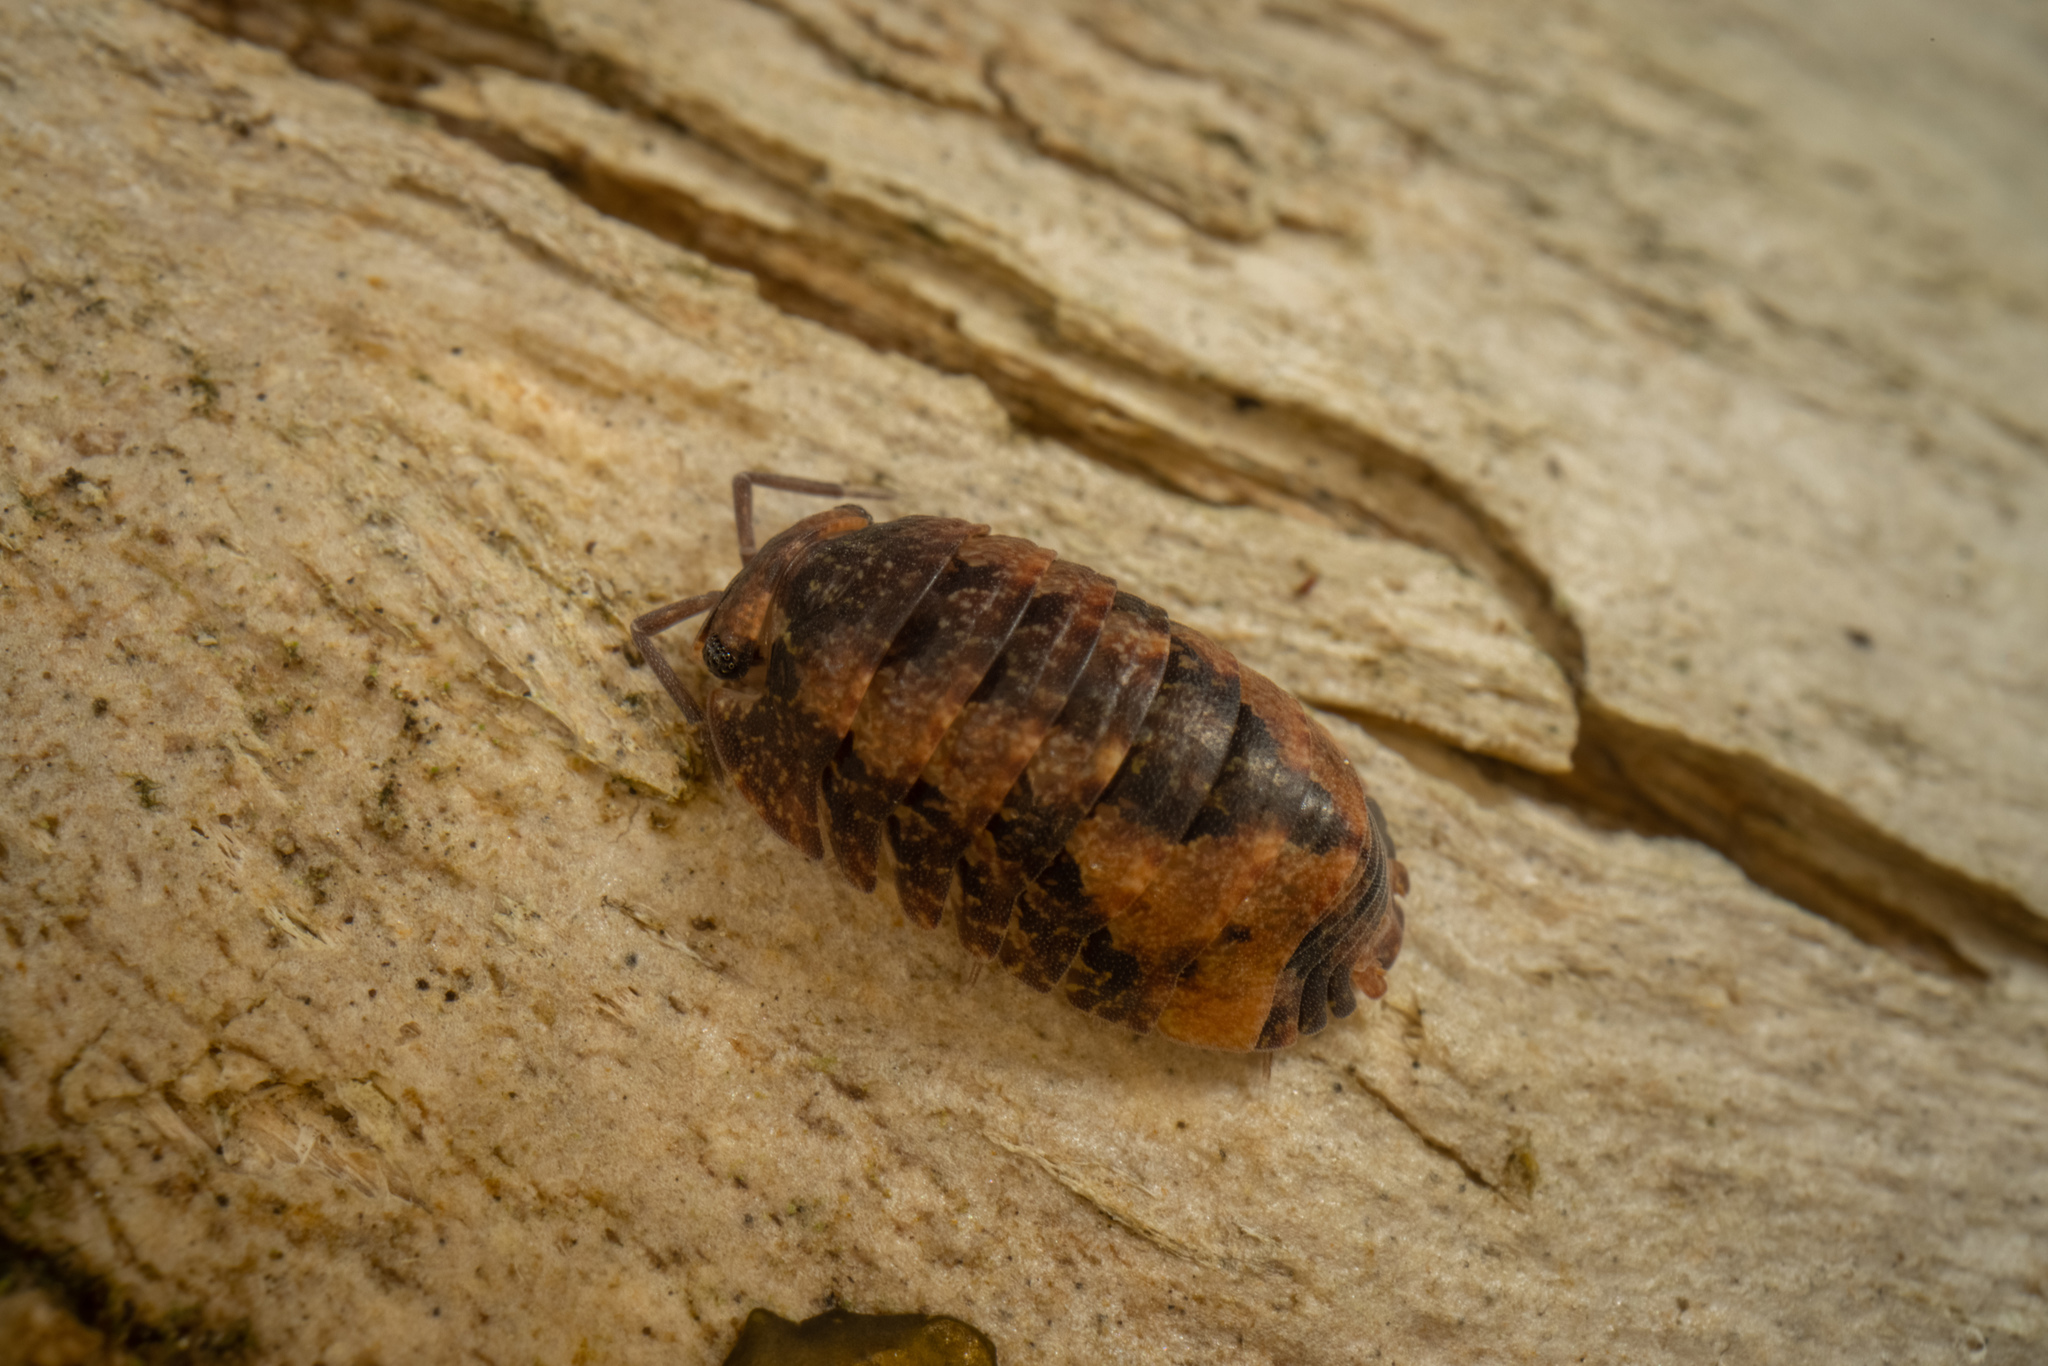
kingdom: Animalia
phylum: Arthropoda
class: Malacostraca
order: Isopoda
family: Armadillidae
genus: Cubaris
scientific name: Cubaris tarangensis
